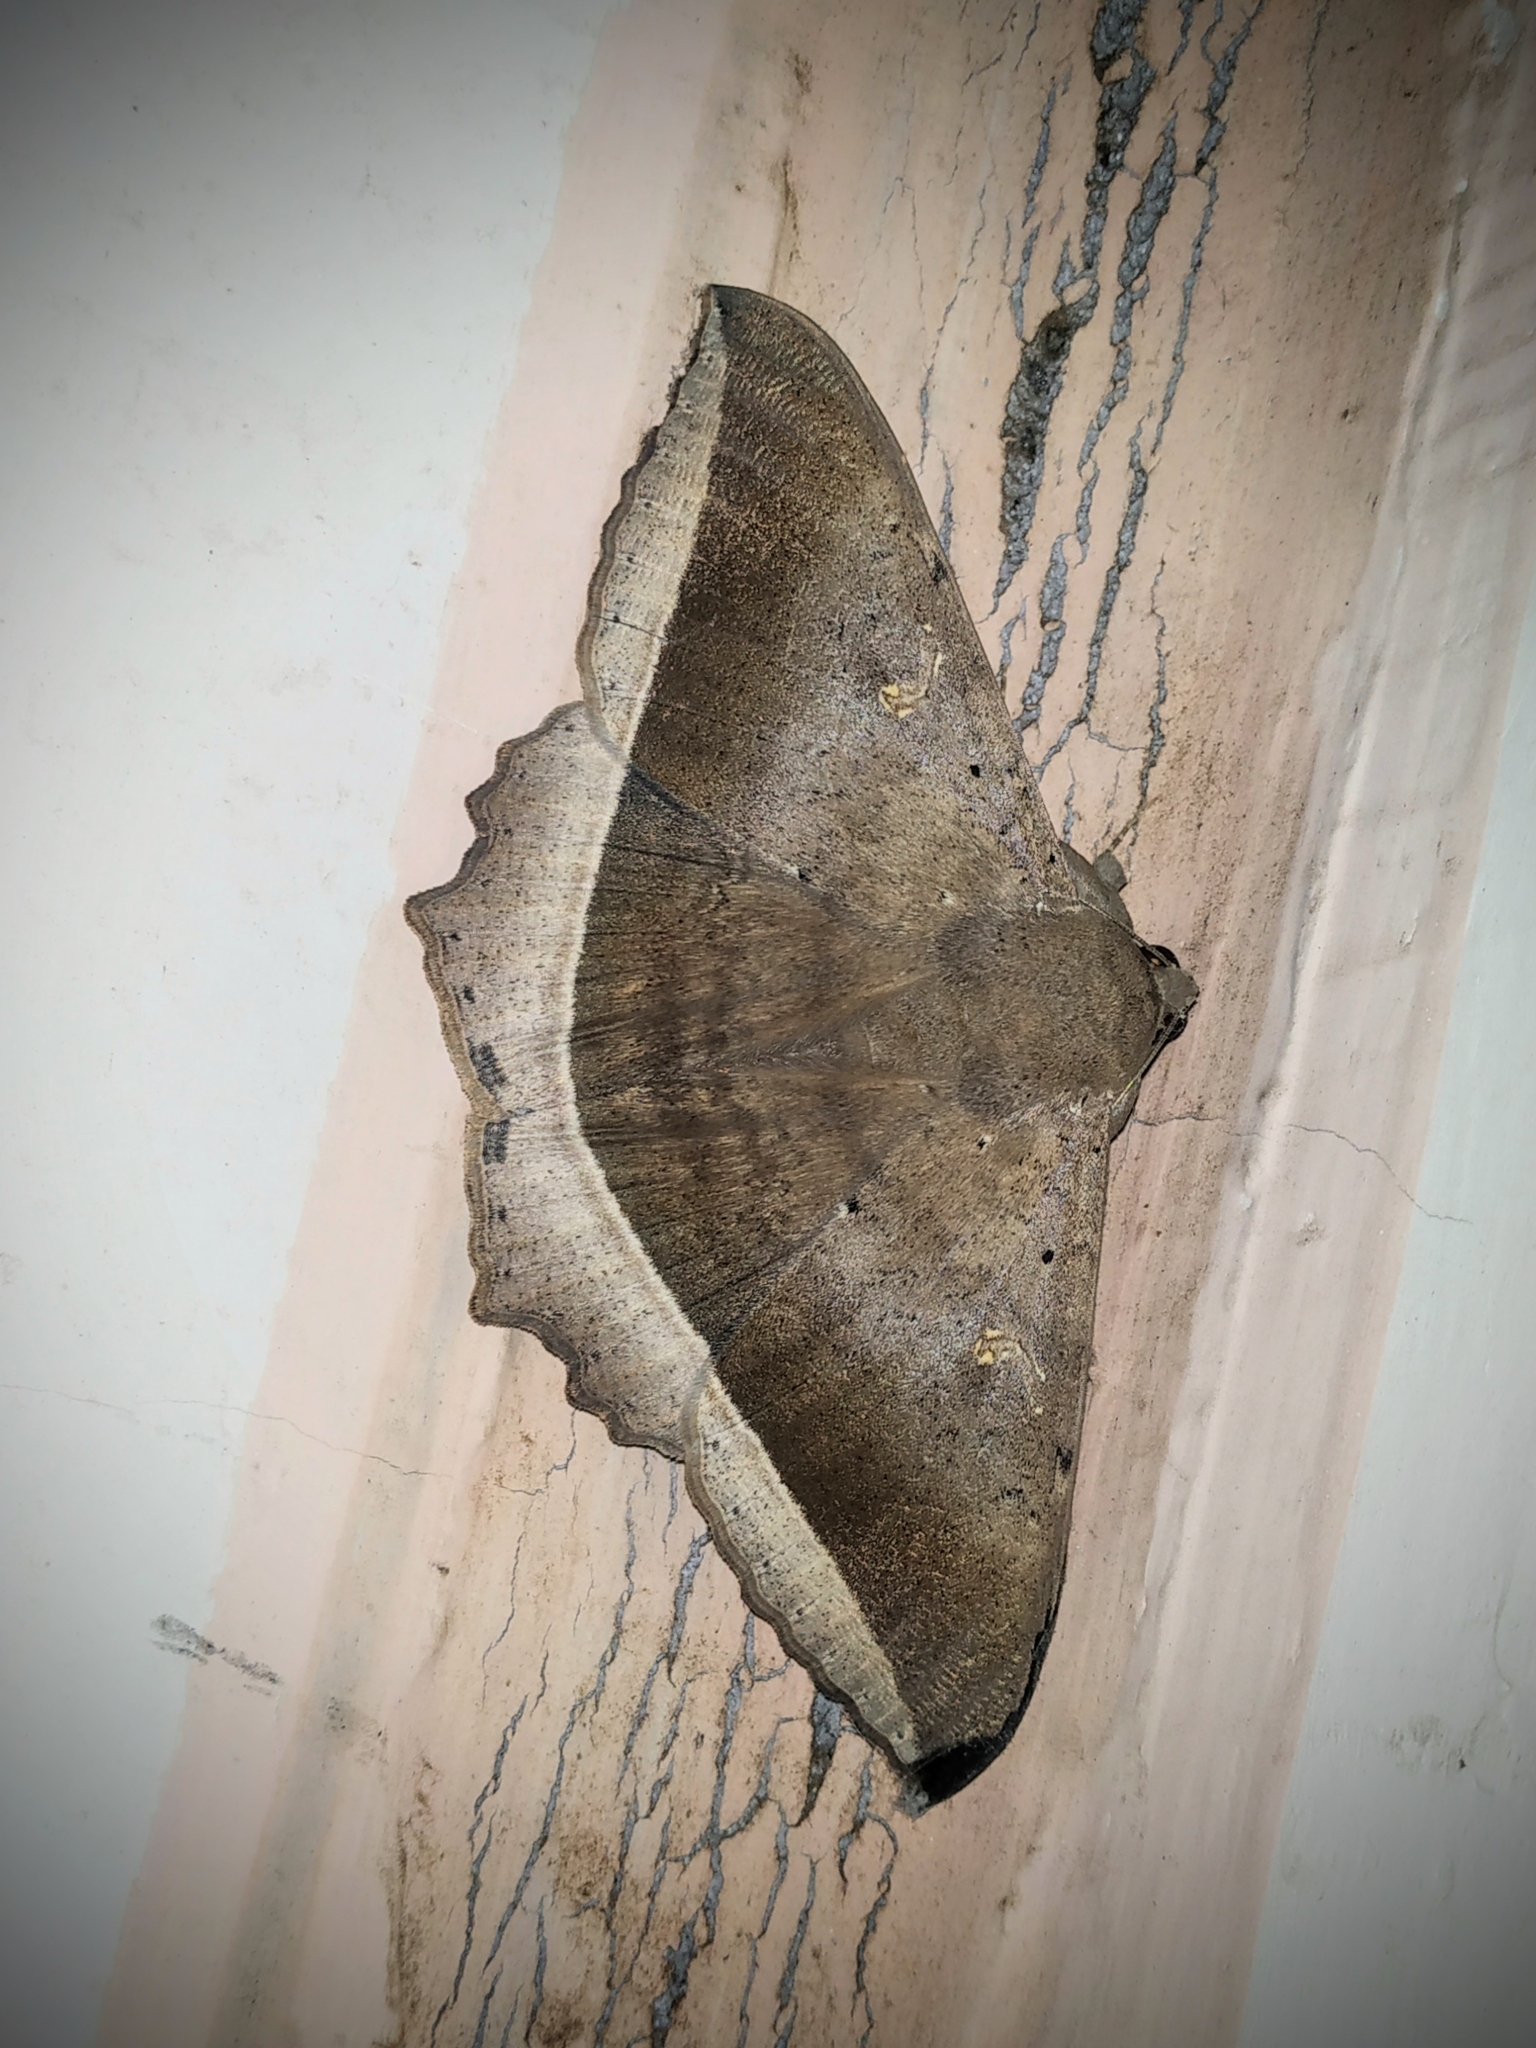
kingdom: Animalia
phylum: Arthropoda
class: Insecta
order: Lepidoptera
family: Erebidae
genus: Hulodes
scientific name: Hulodes caranea
